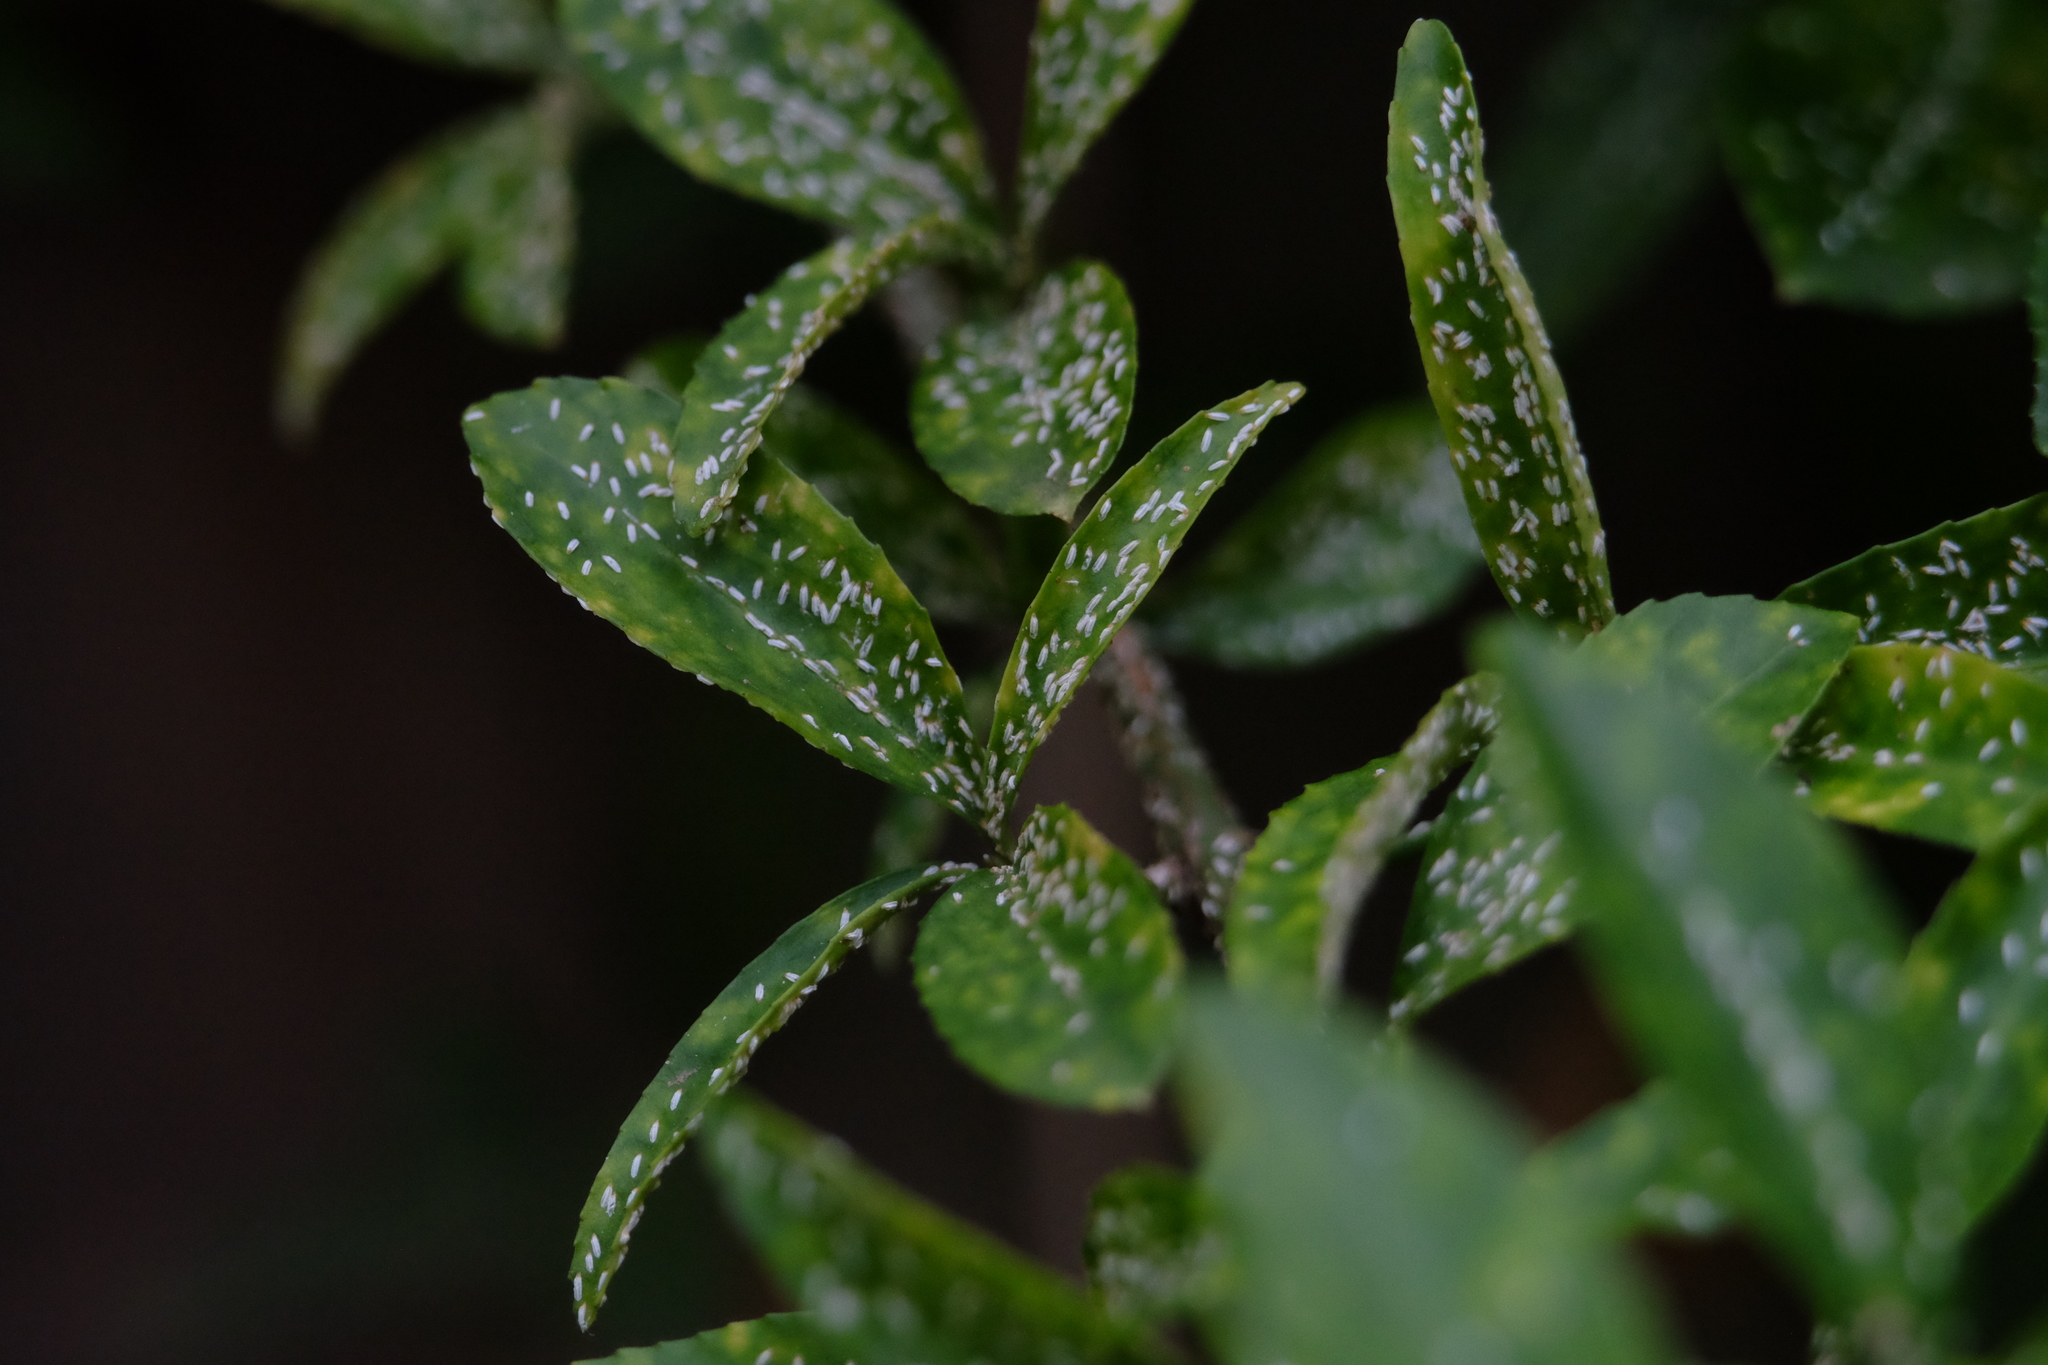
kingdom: Animalia
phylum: Arthropoda
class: Insecta
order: Hemiptera
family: Diaspididae
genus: Unaspis
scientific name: Unaspis euonymi
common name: Euonymus scale
